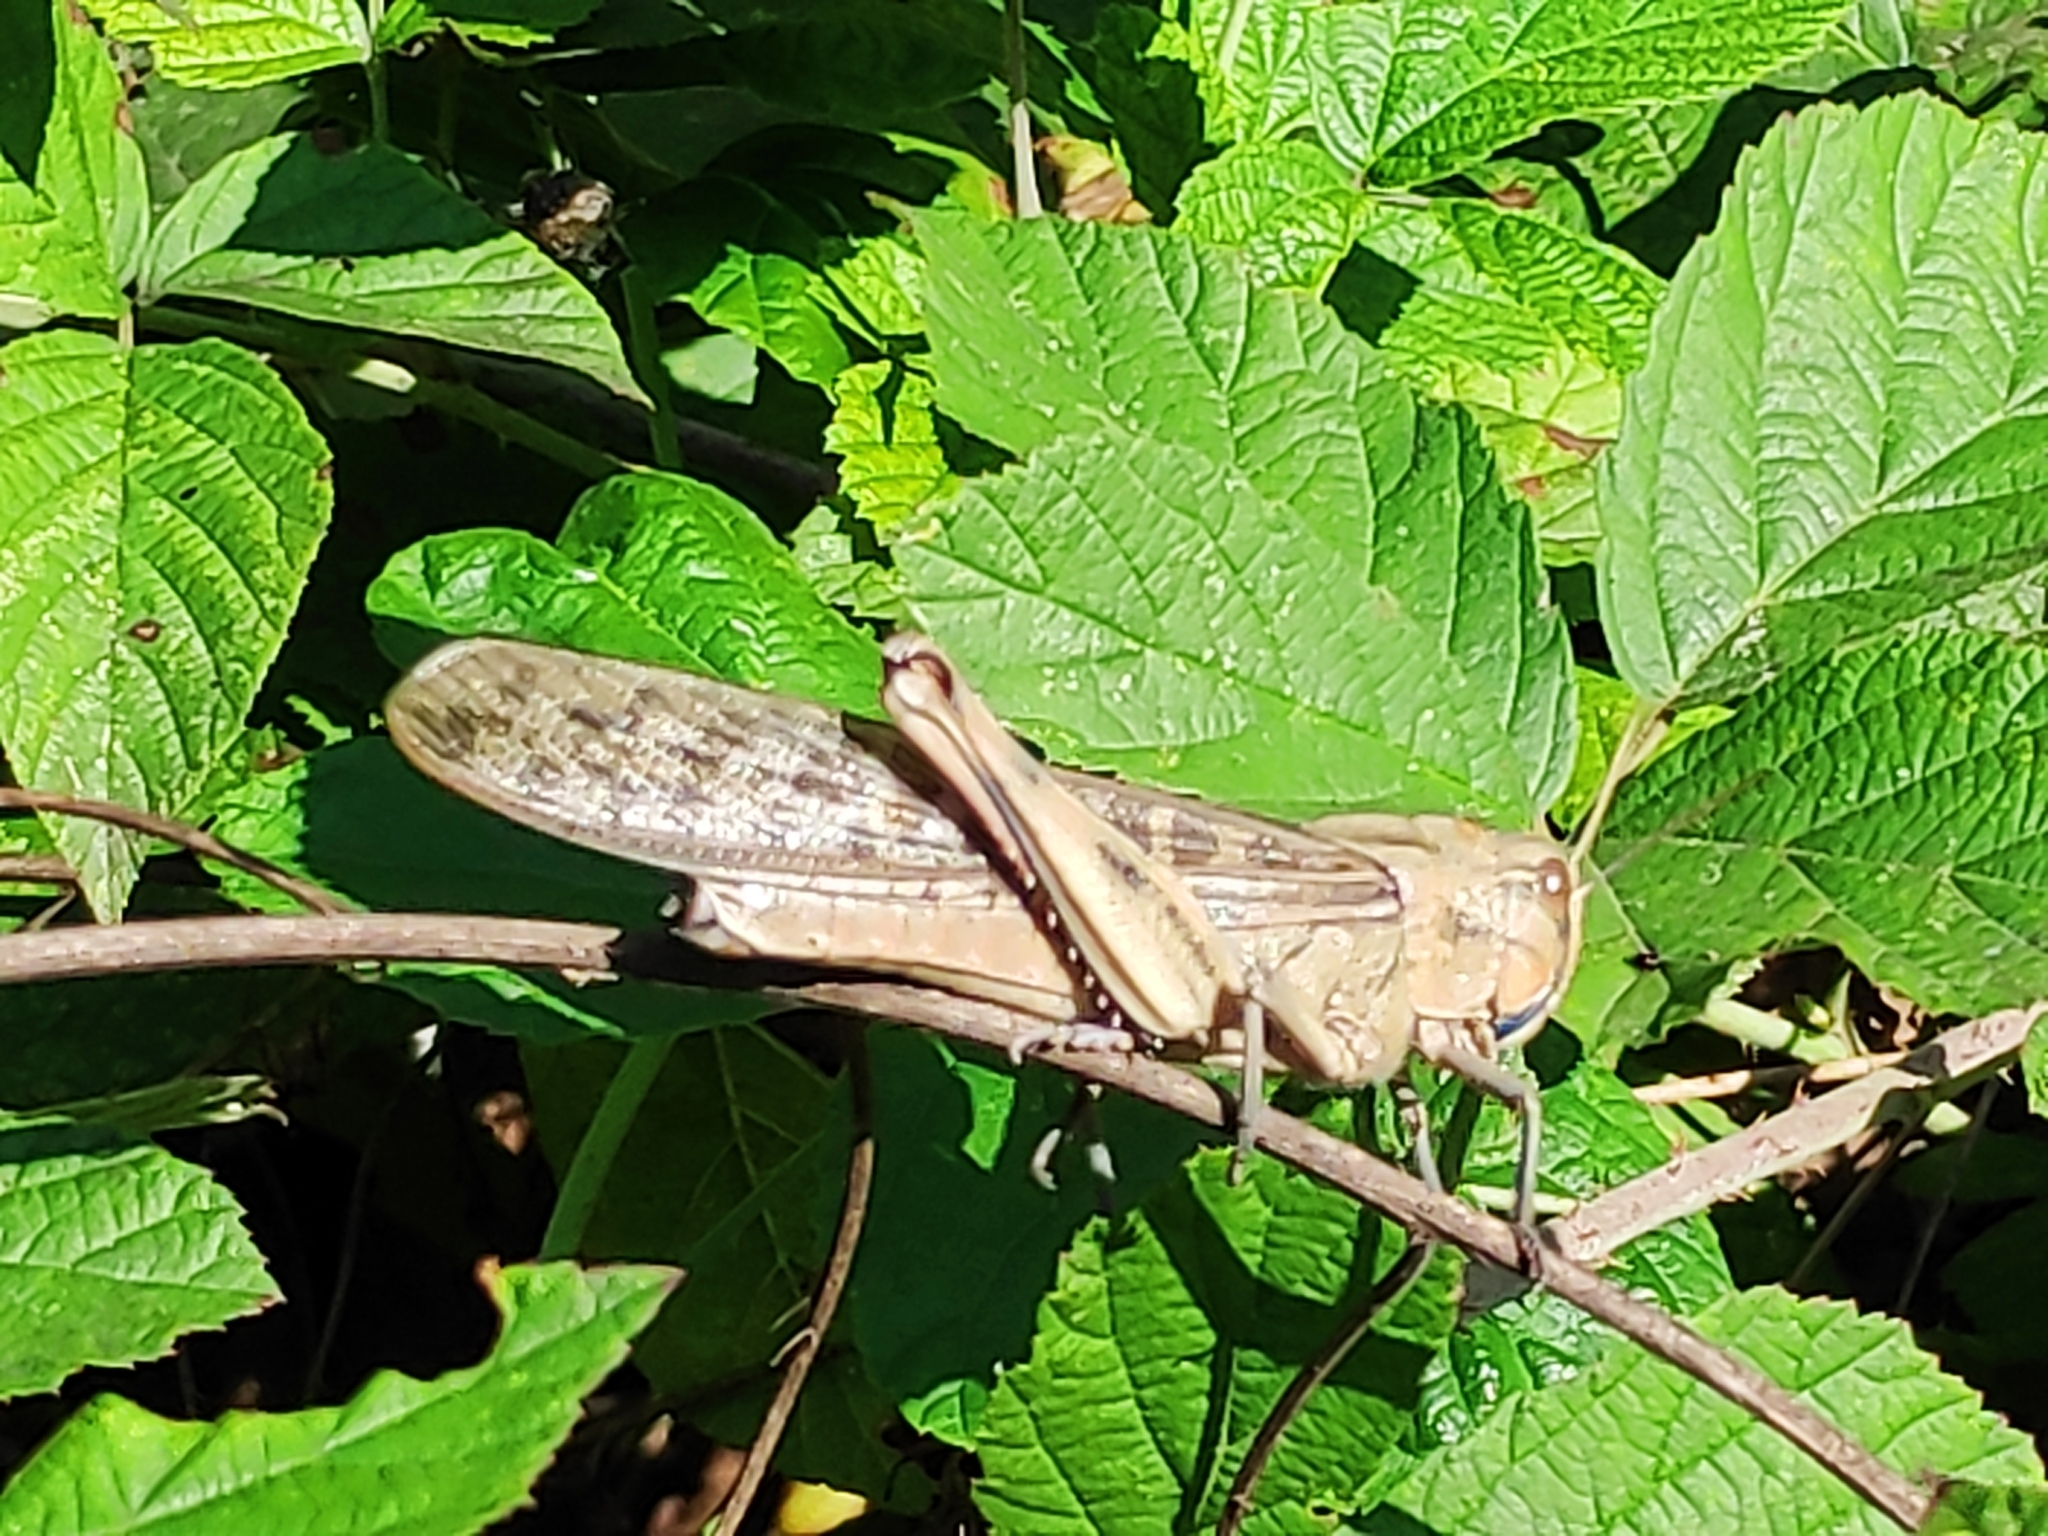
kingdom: Animalia
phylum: Arthropoda
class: Insecta
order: Orthoptera
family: Acrididae
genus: Locusta
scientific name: Locusta migratoria
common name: Migratory locust
